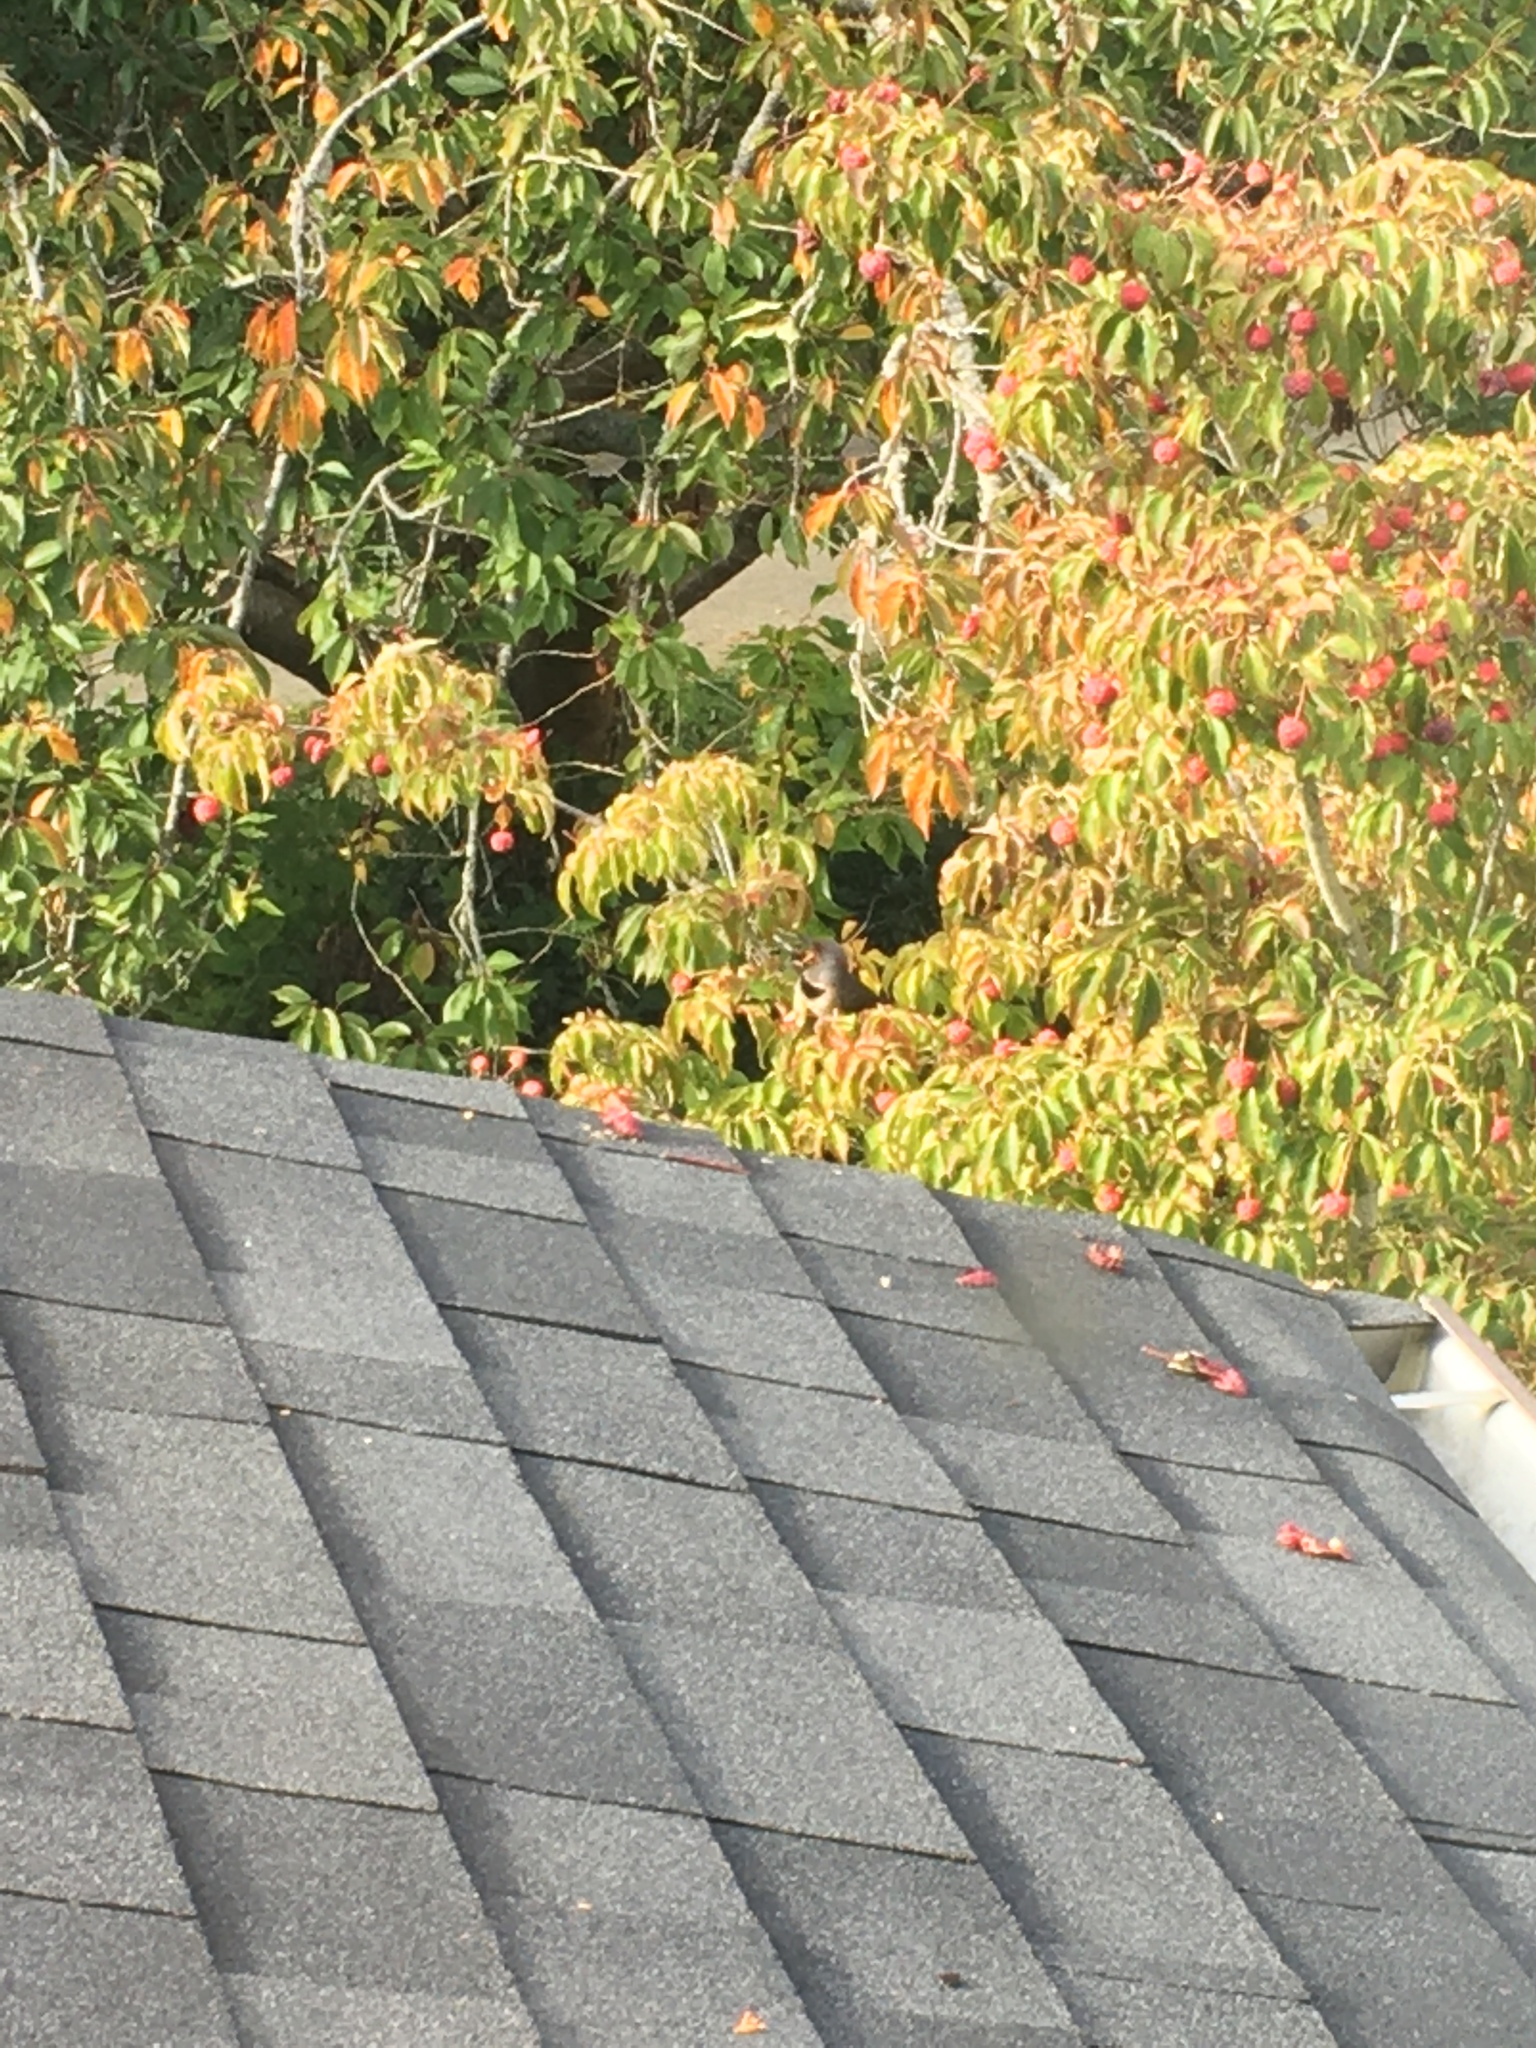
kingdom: Animalia
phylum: Chordata
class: Aves
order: Piciformes
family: Picidae
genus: Colaptes
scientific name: Colaptes auratus
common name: Northern flicker
